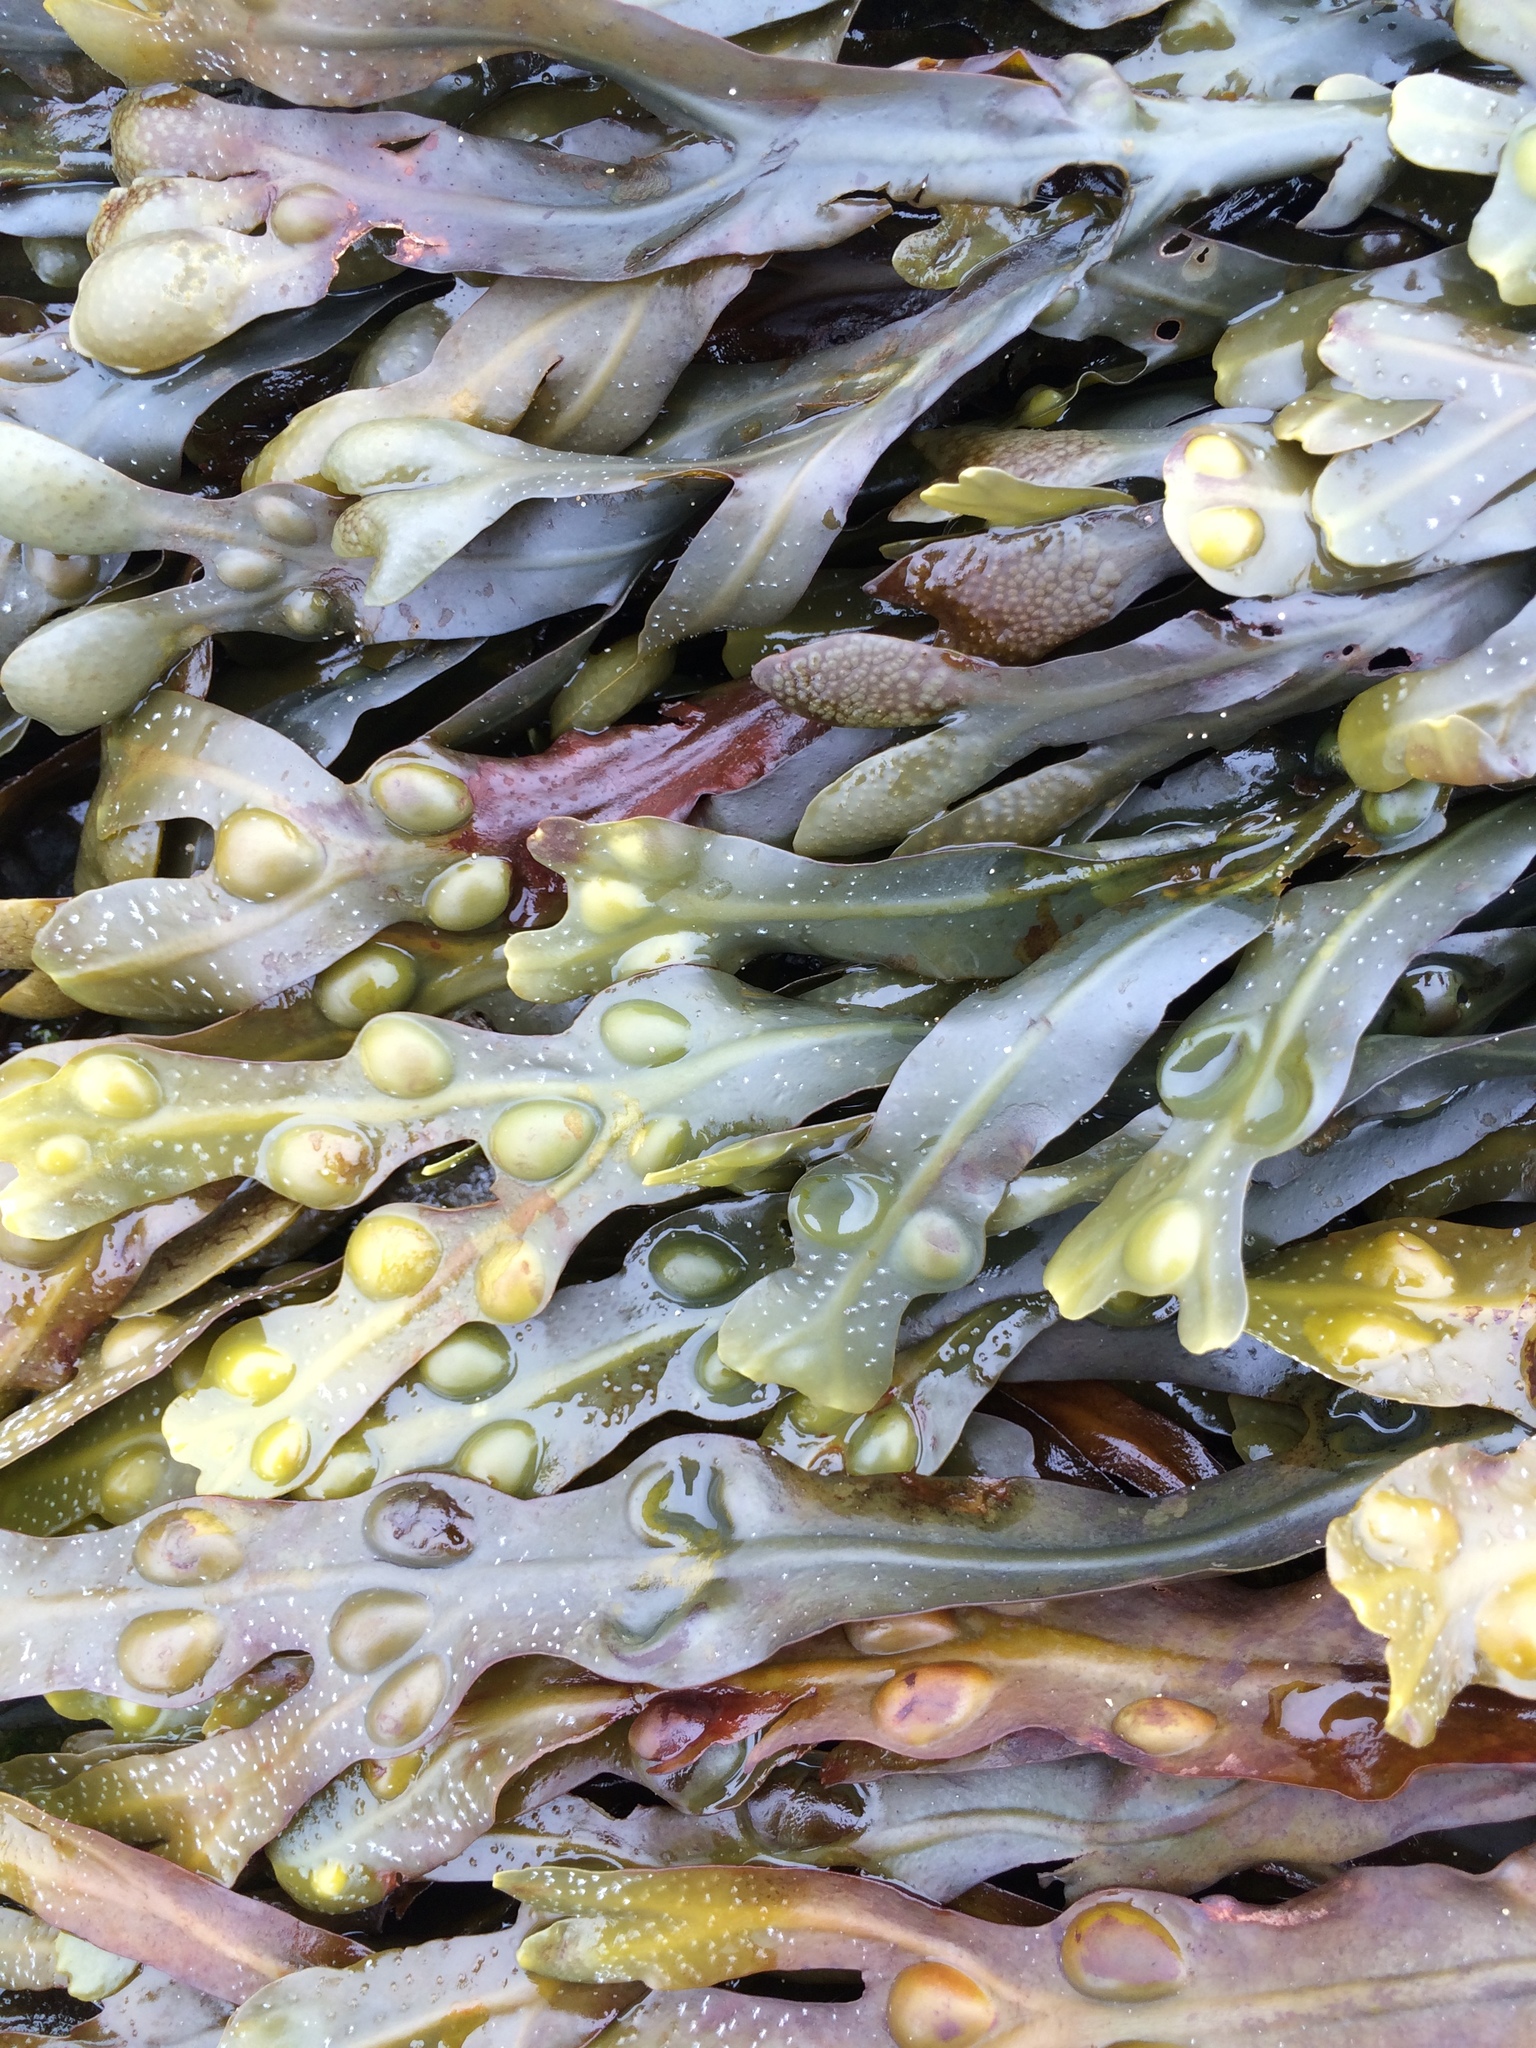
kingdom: Chromista
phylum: Ochrophyta
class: Phaeophyceae
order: Fucales
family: Fucaceae
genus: Fucus
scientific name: Fucus vesiculosus
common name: Bladder wrack
